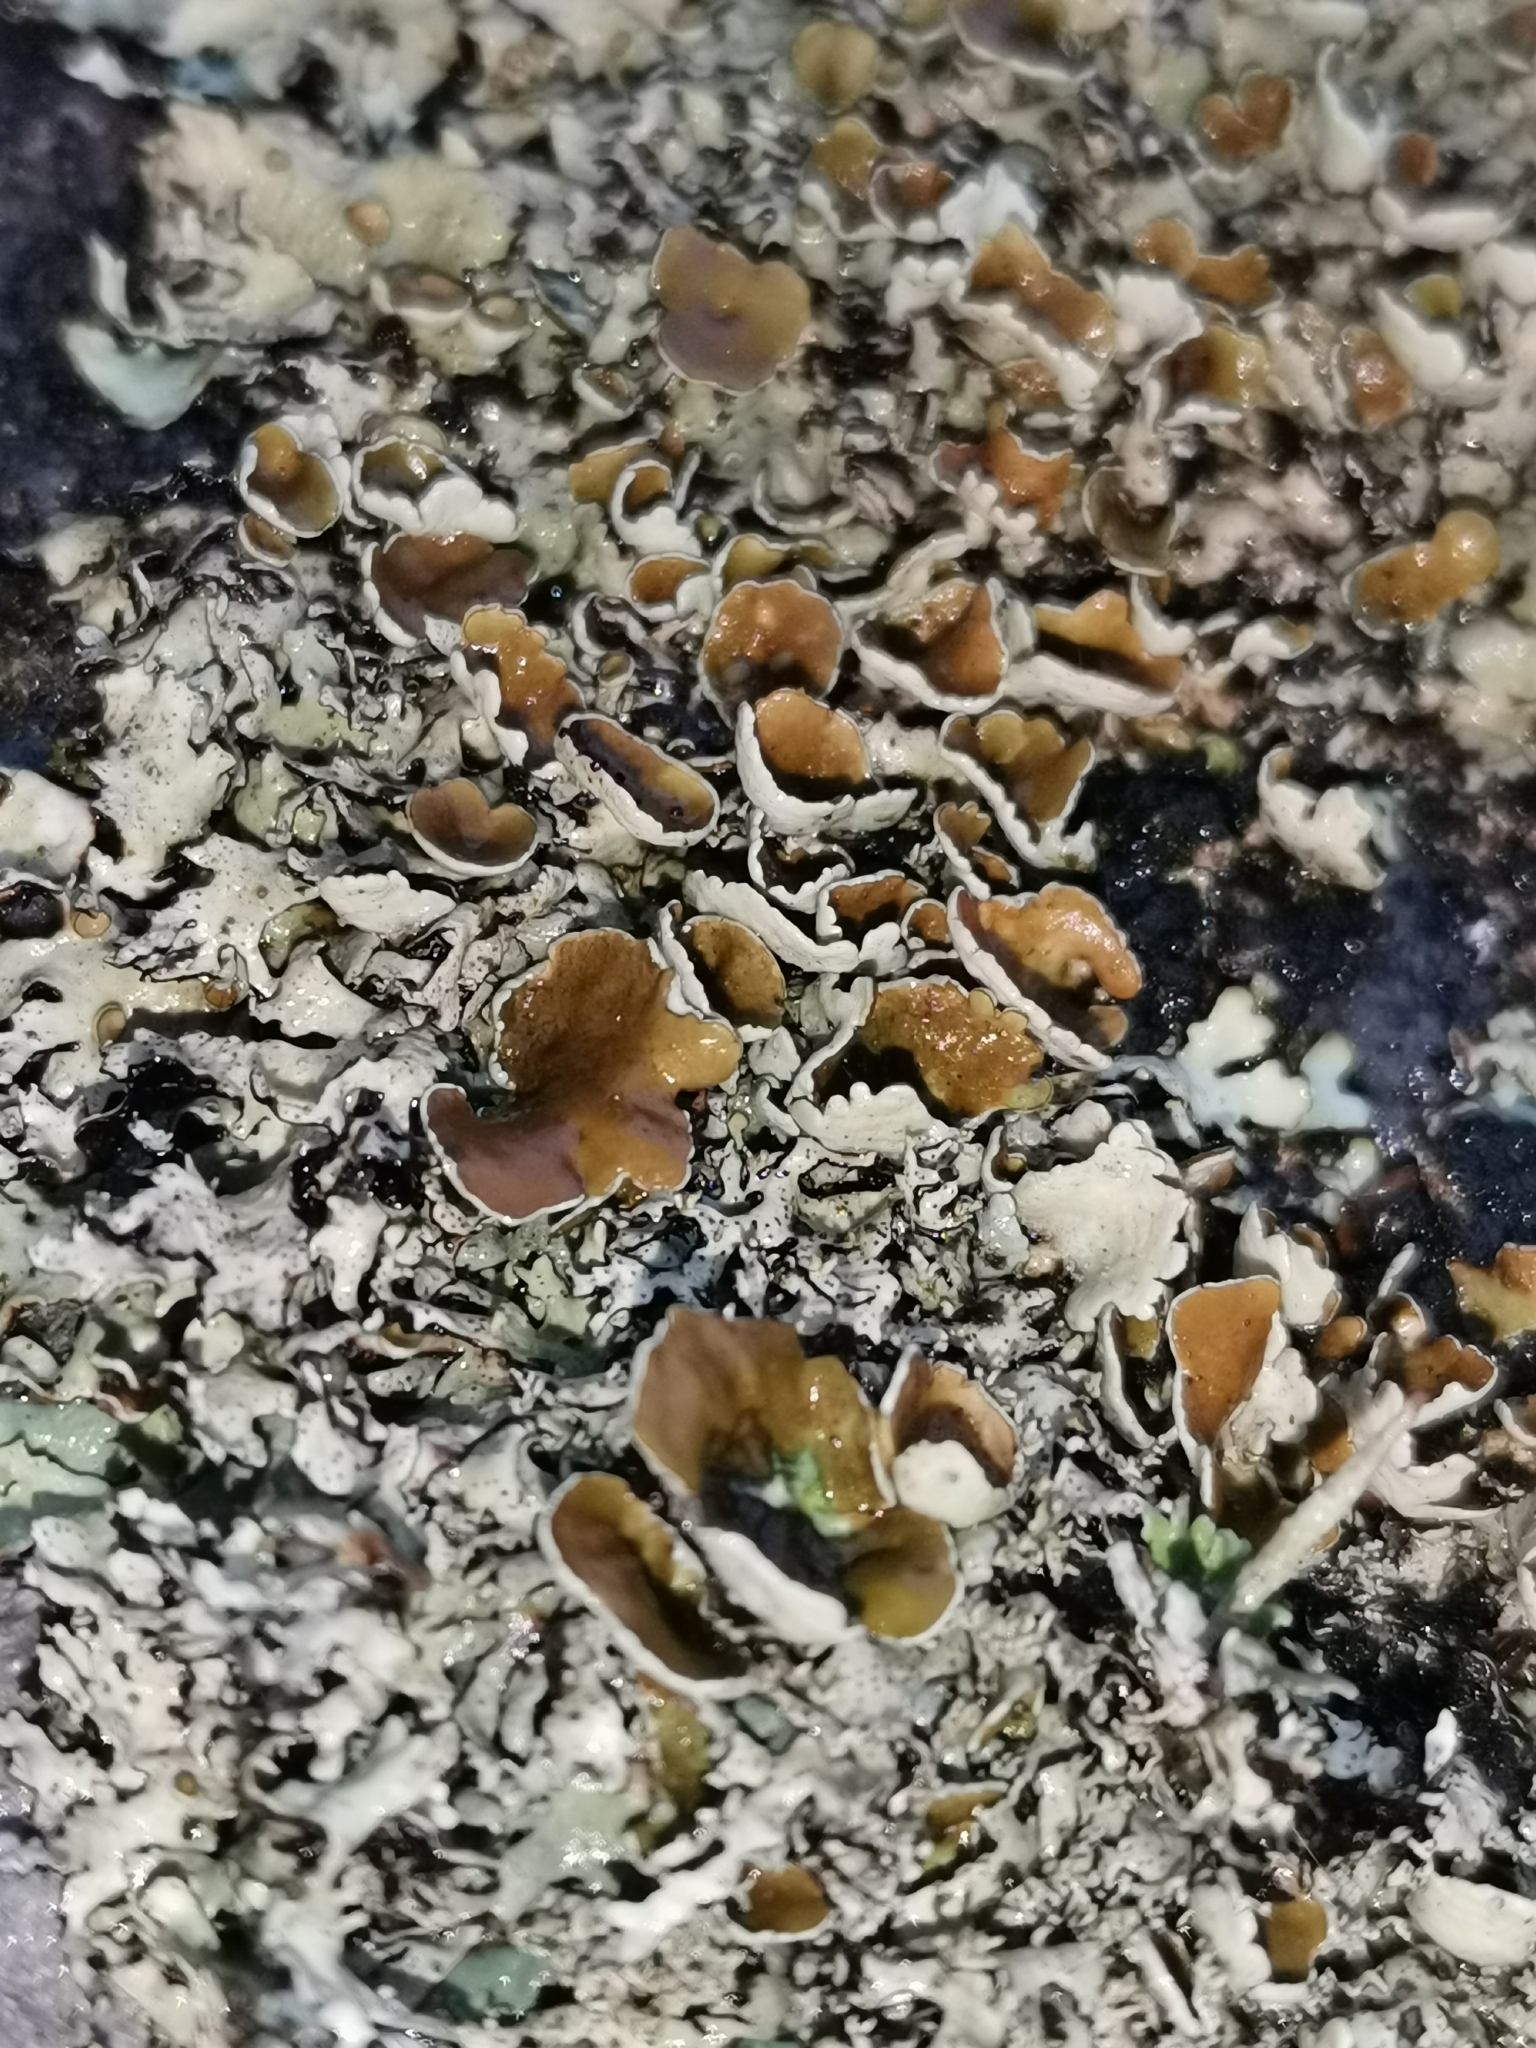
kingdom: Fungi
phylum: Ascomycota
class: Lecanoromycetes
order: Lecanorales
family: Parmeliaceae
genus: Xanthoparmelia
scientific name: Xanthoparmelia stenophylla
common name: Shingled rock shield
